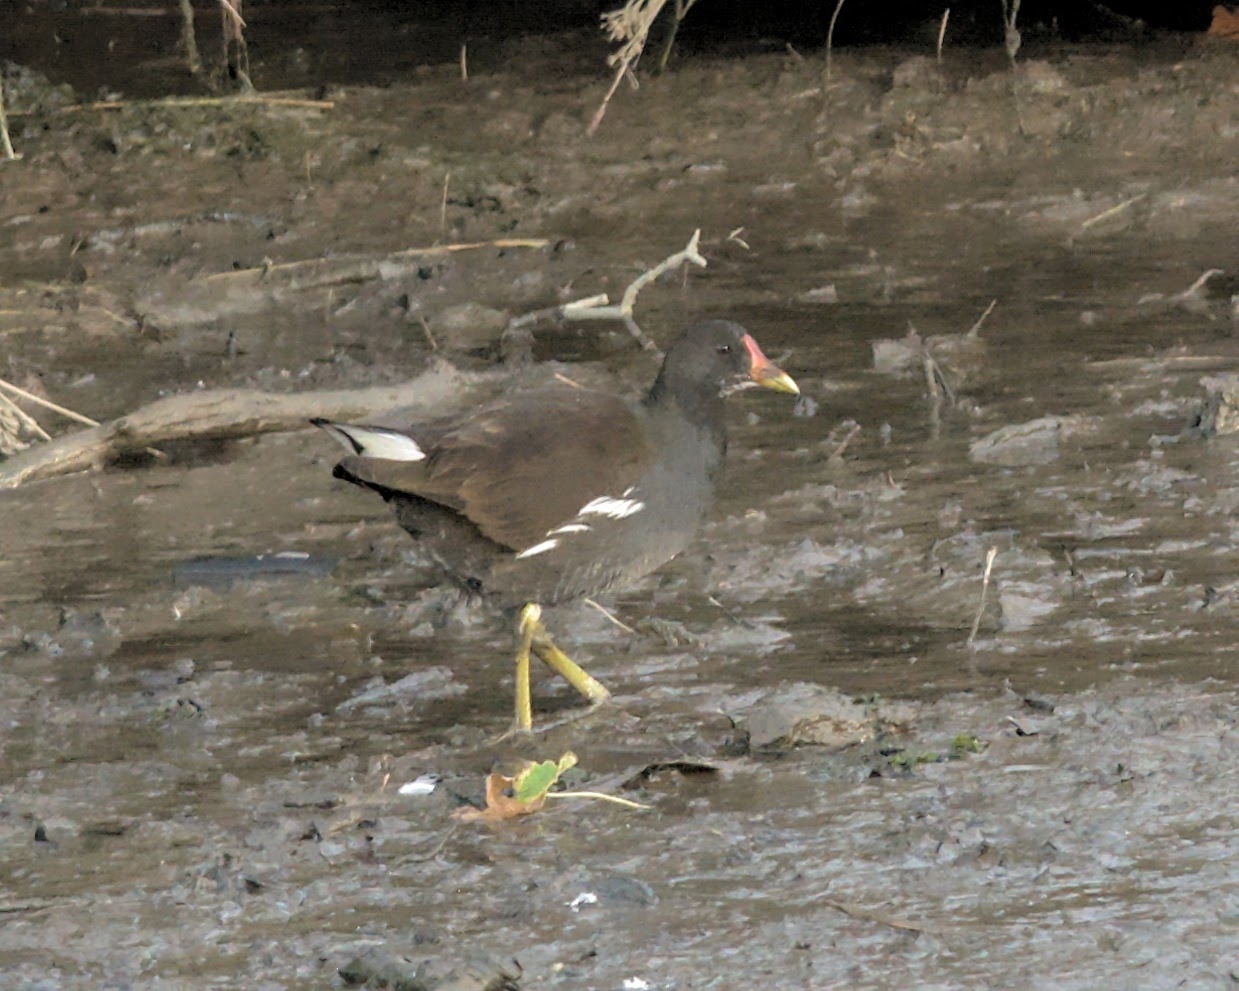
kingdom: Animalia
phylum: Chordata
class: Aves
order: Gruiformes
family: Rallidae
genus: Gallinula
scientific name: Gallinula chloropus
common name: Common moorhen
